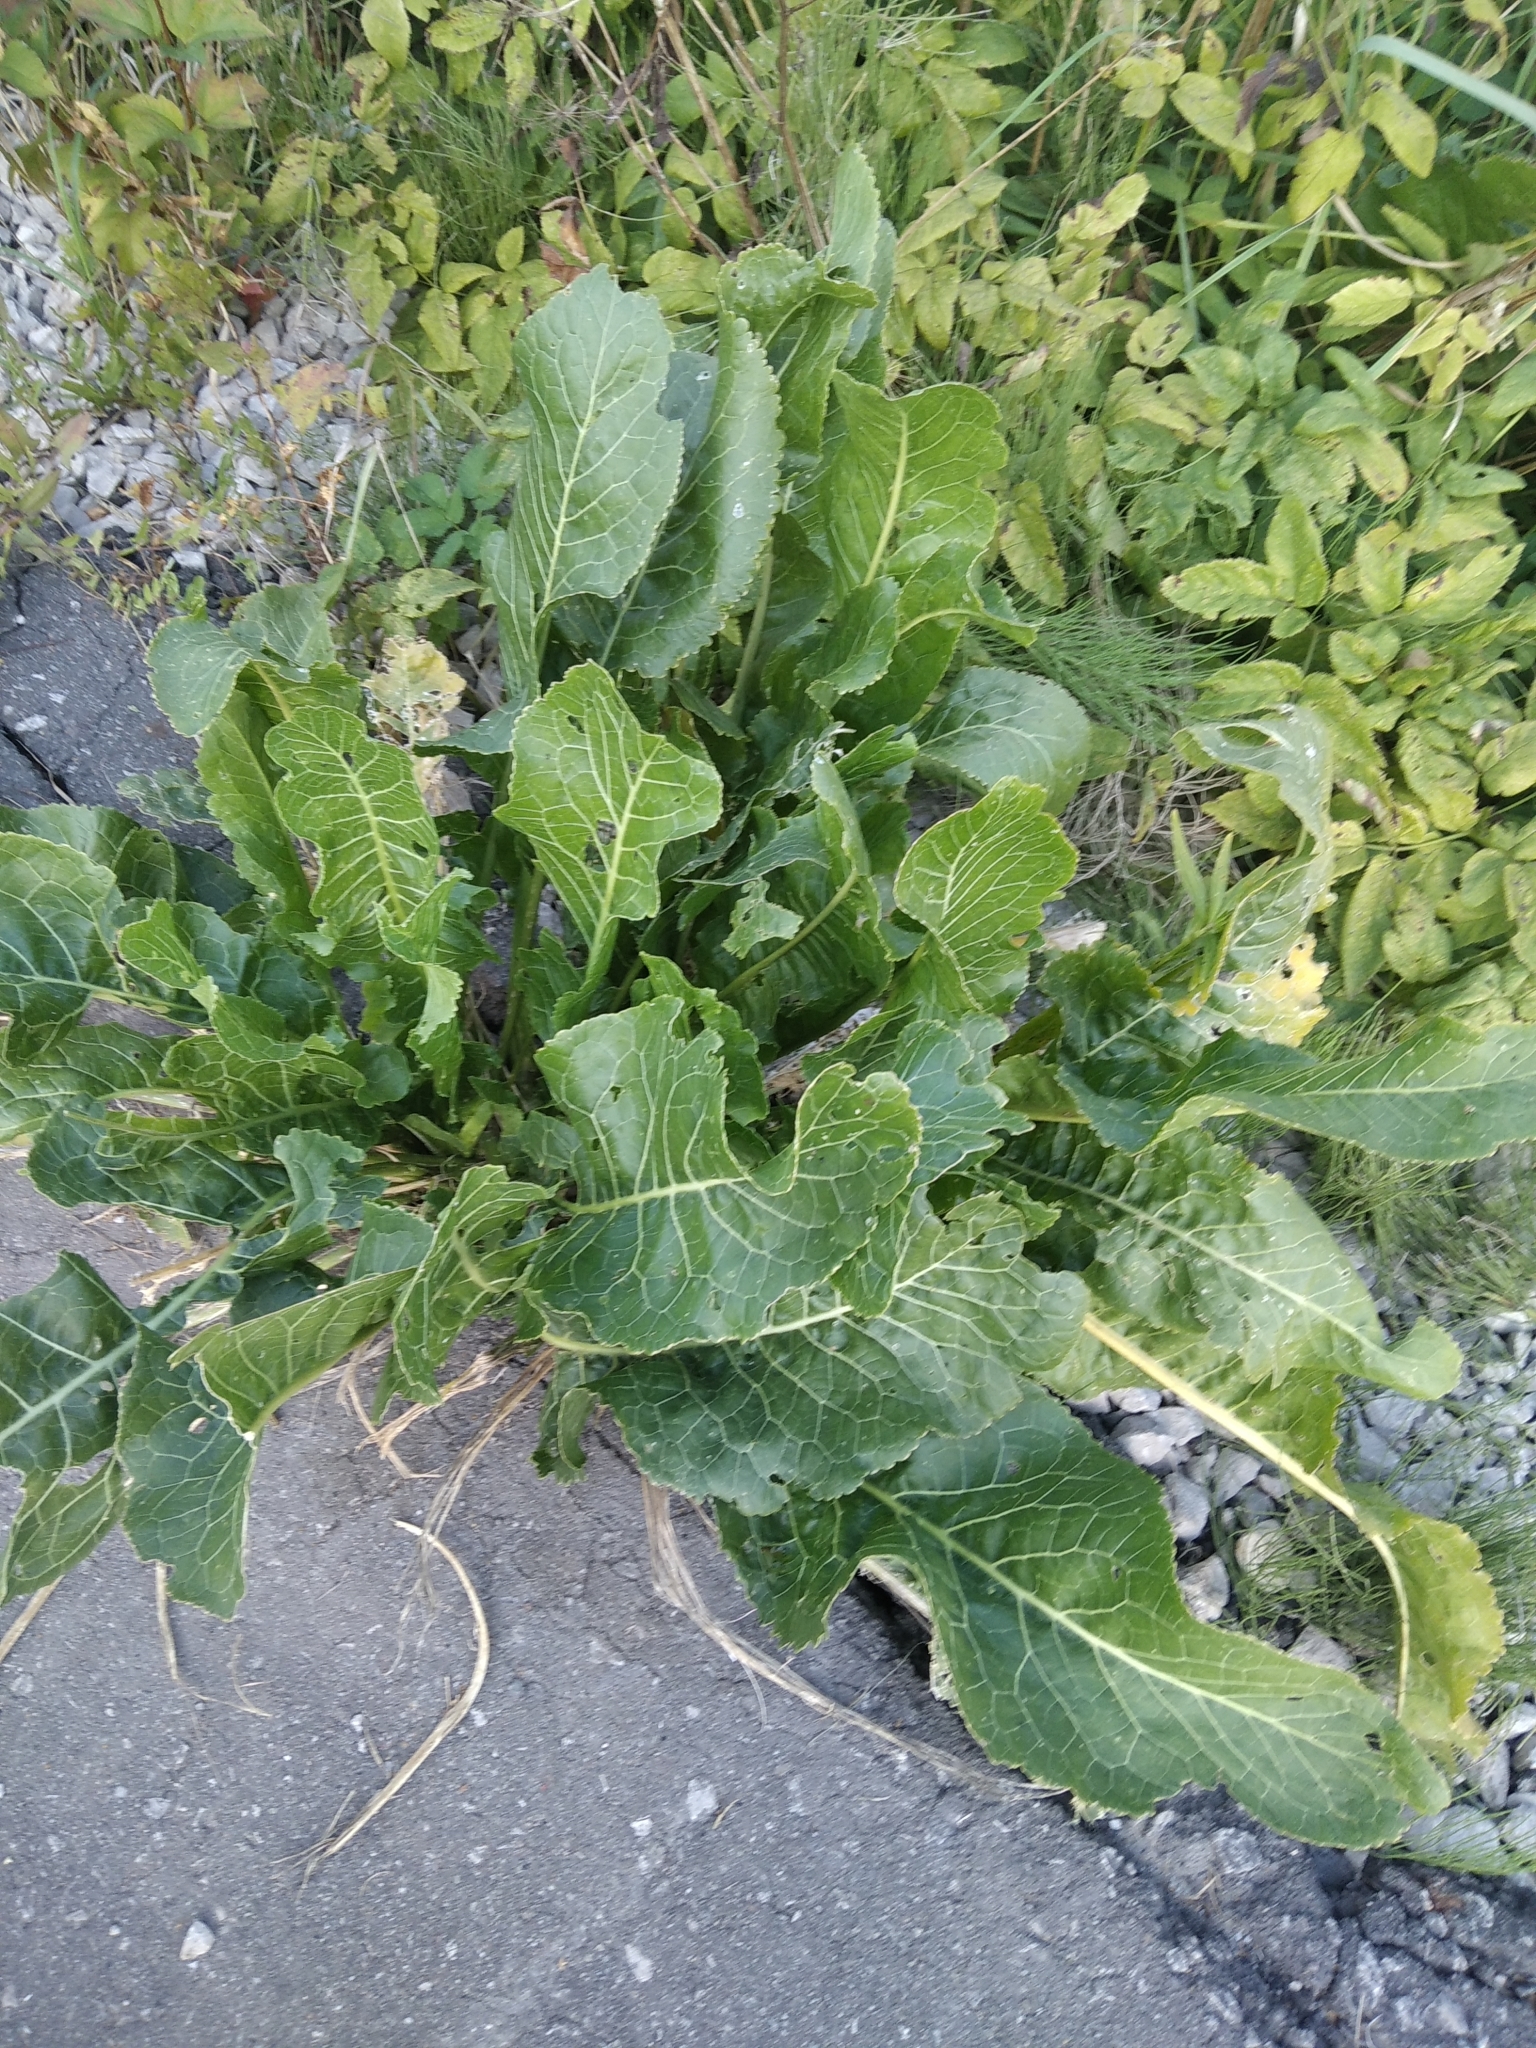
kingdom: Plantae
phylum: Tracheophyta
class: Magnoliopsida
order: Brassicales
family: Brassicaceae
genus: Armoracia
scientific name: Armoracia rusticana
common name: Horseradish
